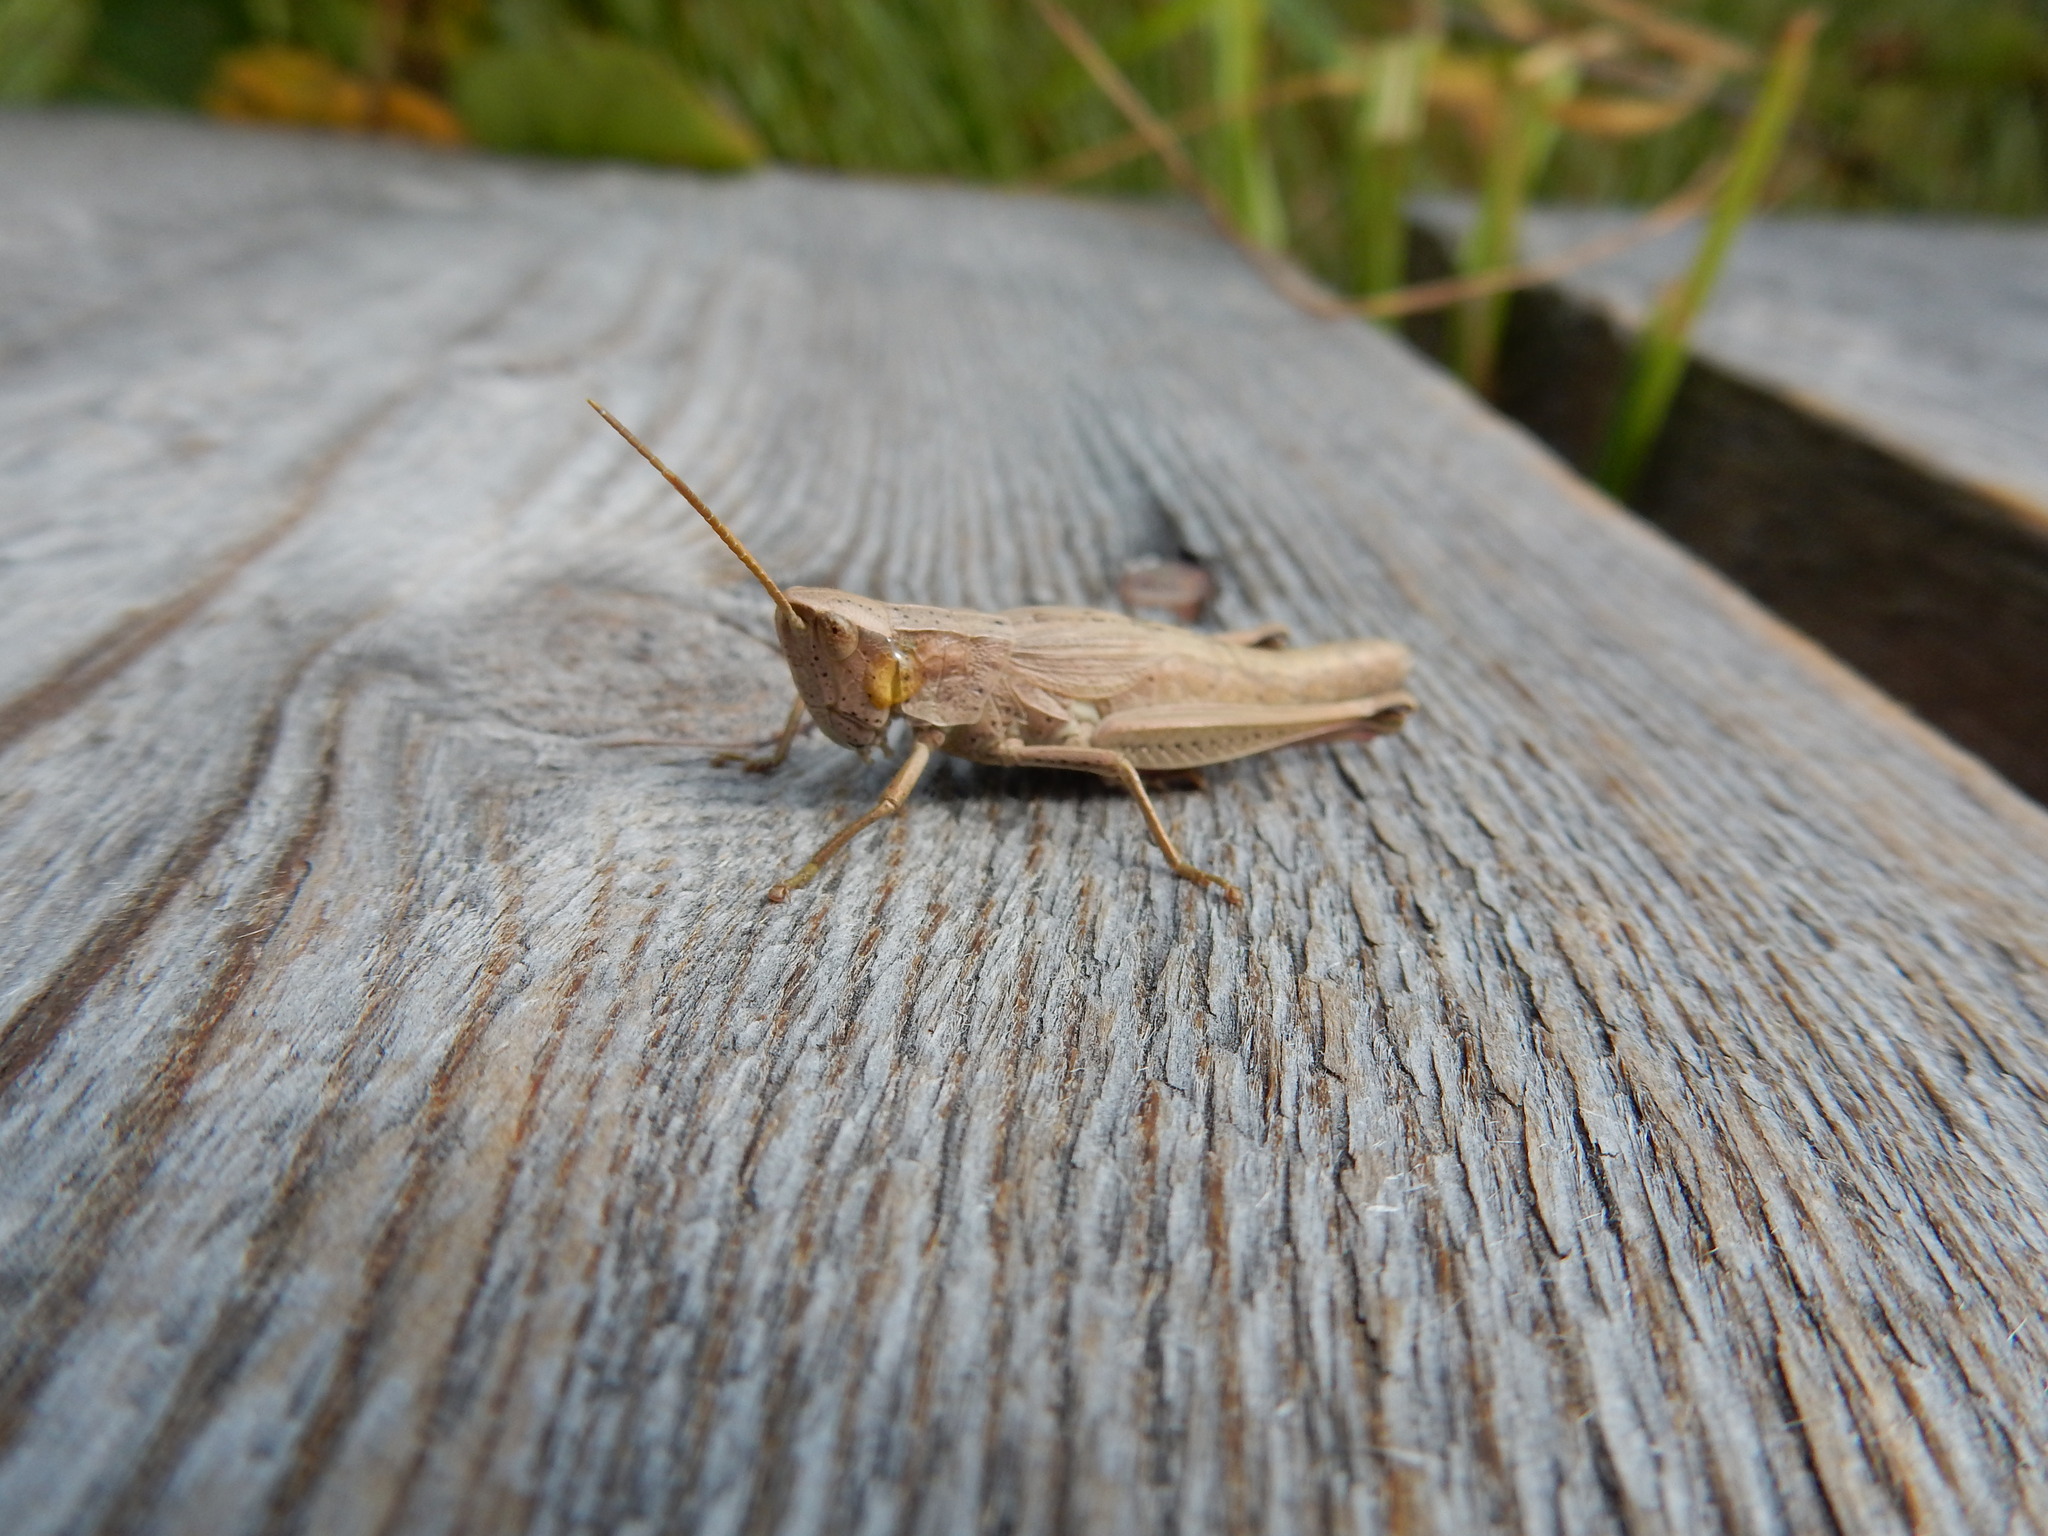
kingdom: Animalia
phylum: Arthropoda
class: Insecta
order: Orthoptera
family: Acrididae
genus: Chrysochraon
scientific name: Chrysochraon dispar
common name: Large gold grasshopper
